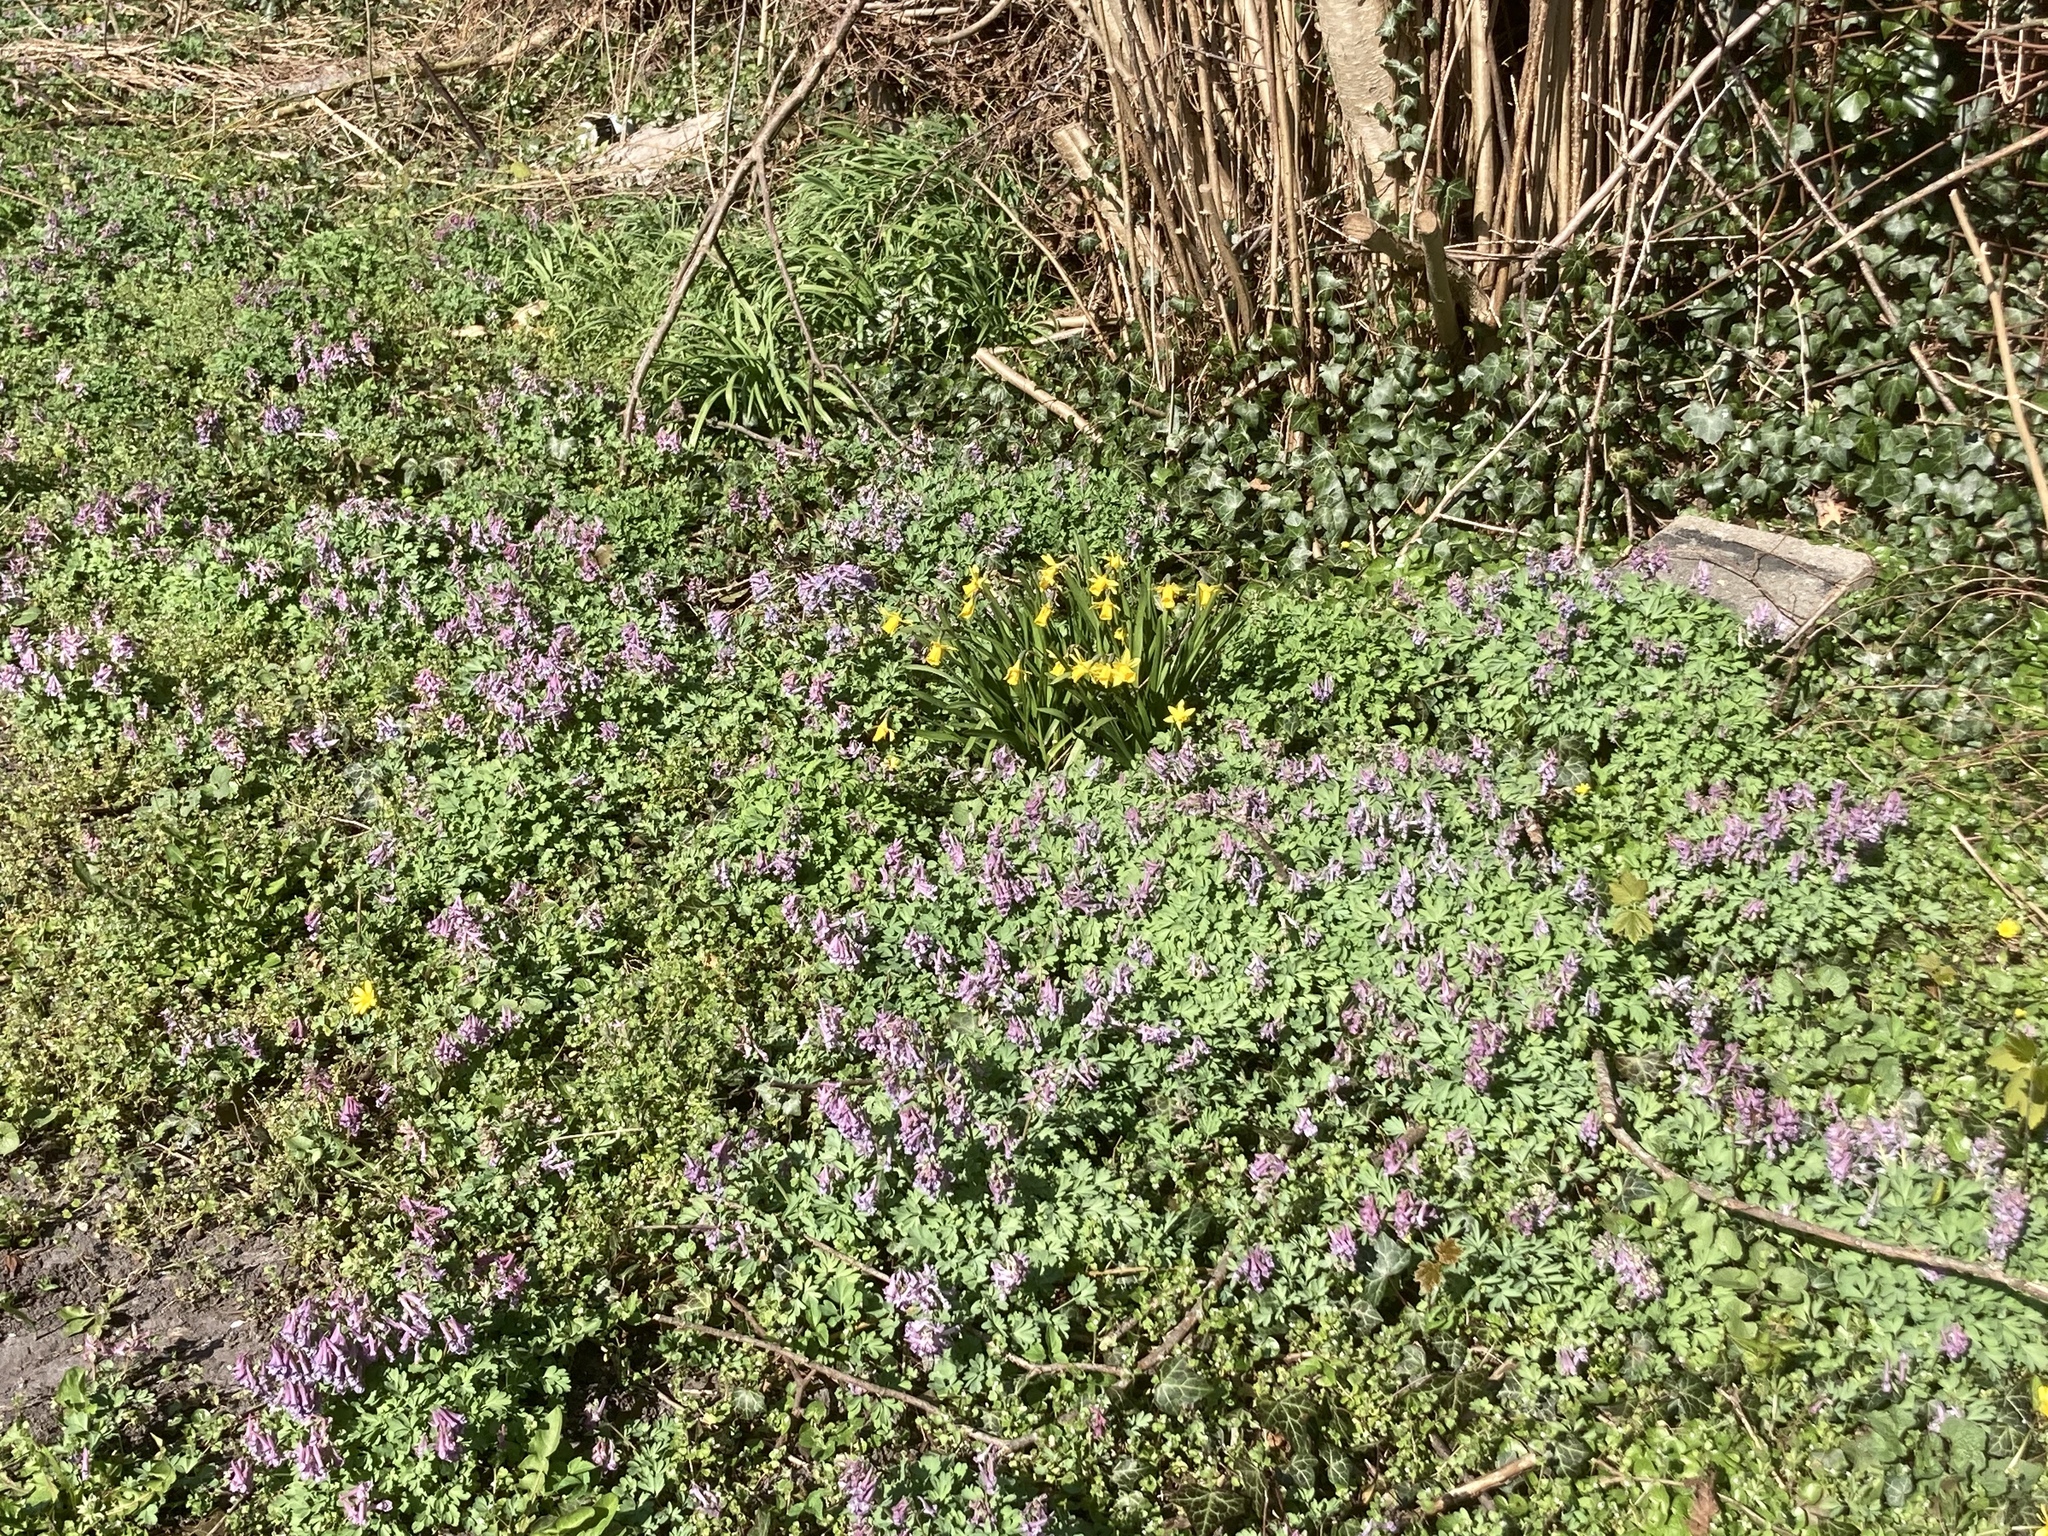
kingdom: Plantae
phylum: Tracheophyta
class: Magnoliopsida
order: Ranunculales
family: Papaveraceae
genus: Corydalis
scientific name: Corydalis solida
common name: Bird-in-a-bush
